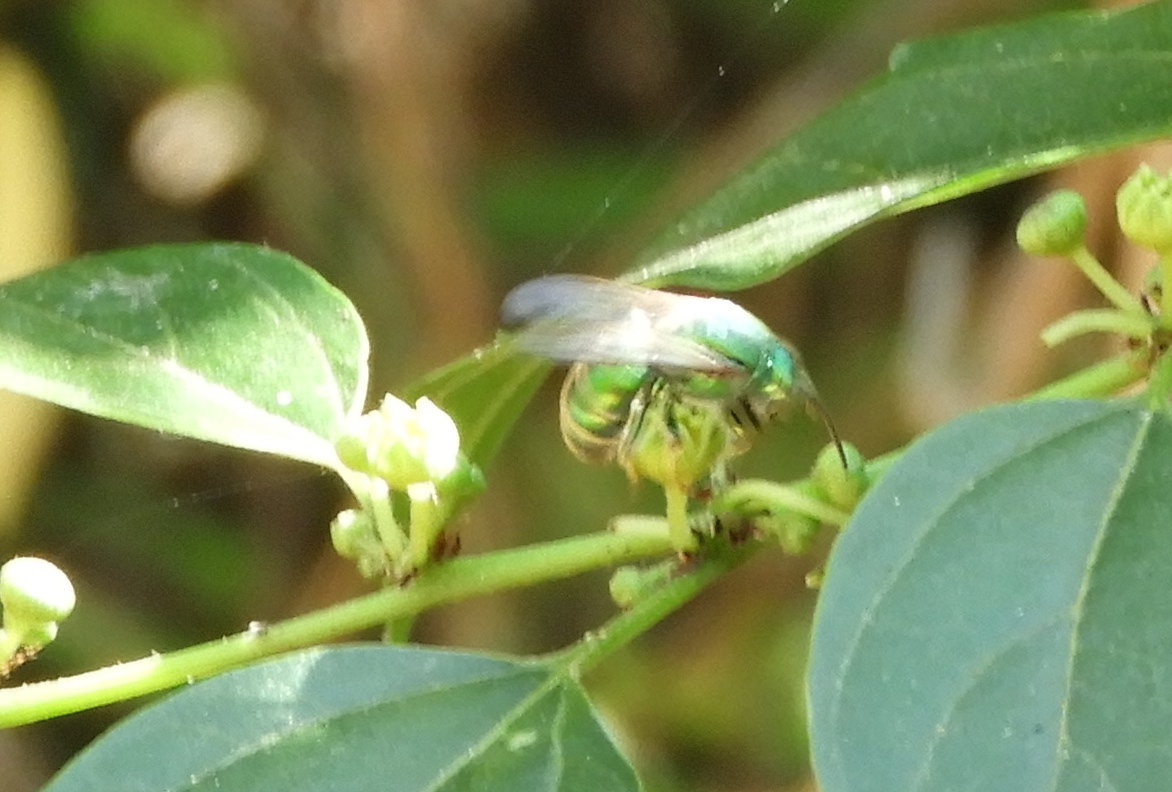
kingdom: Animalia
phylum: Arthropoda
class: Insecta
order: Hymenoptera
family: Halictidae
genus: Augochloropsis
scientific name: Augochloropsis
